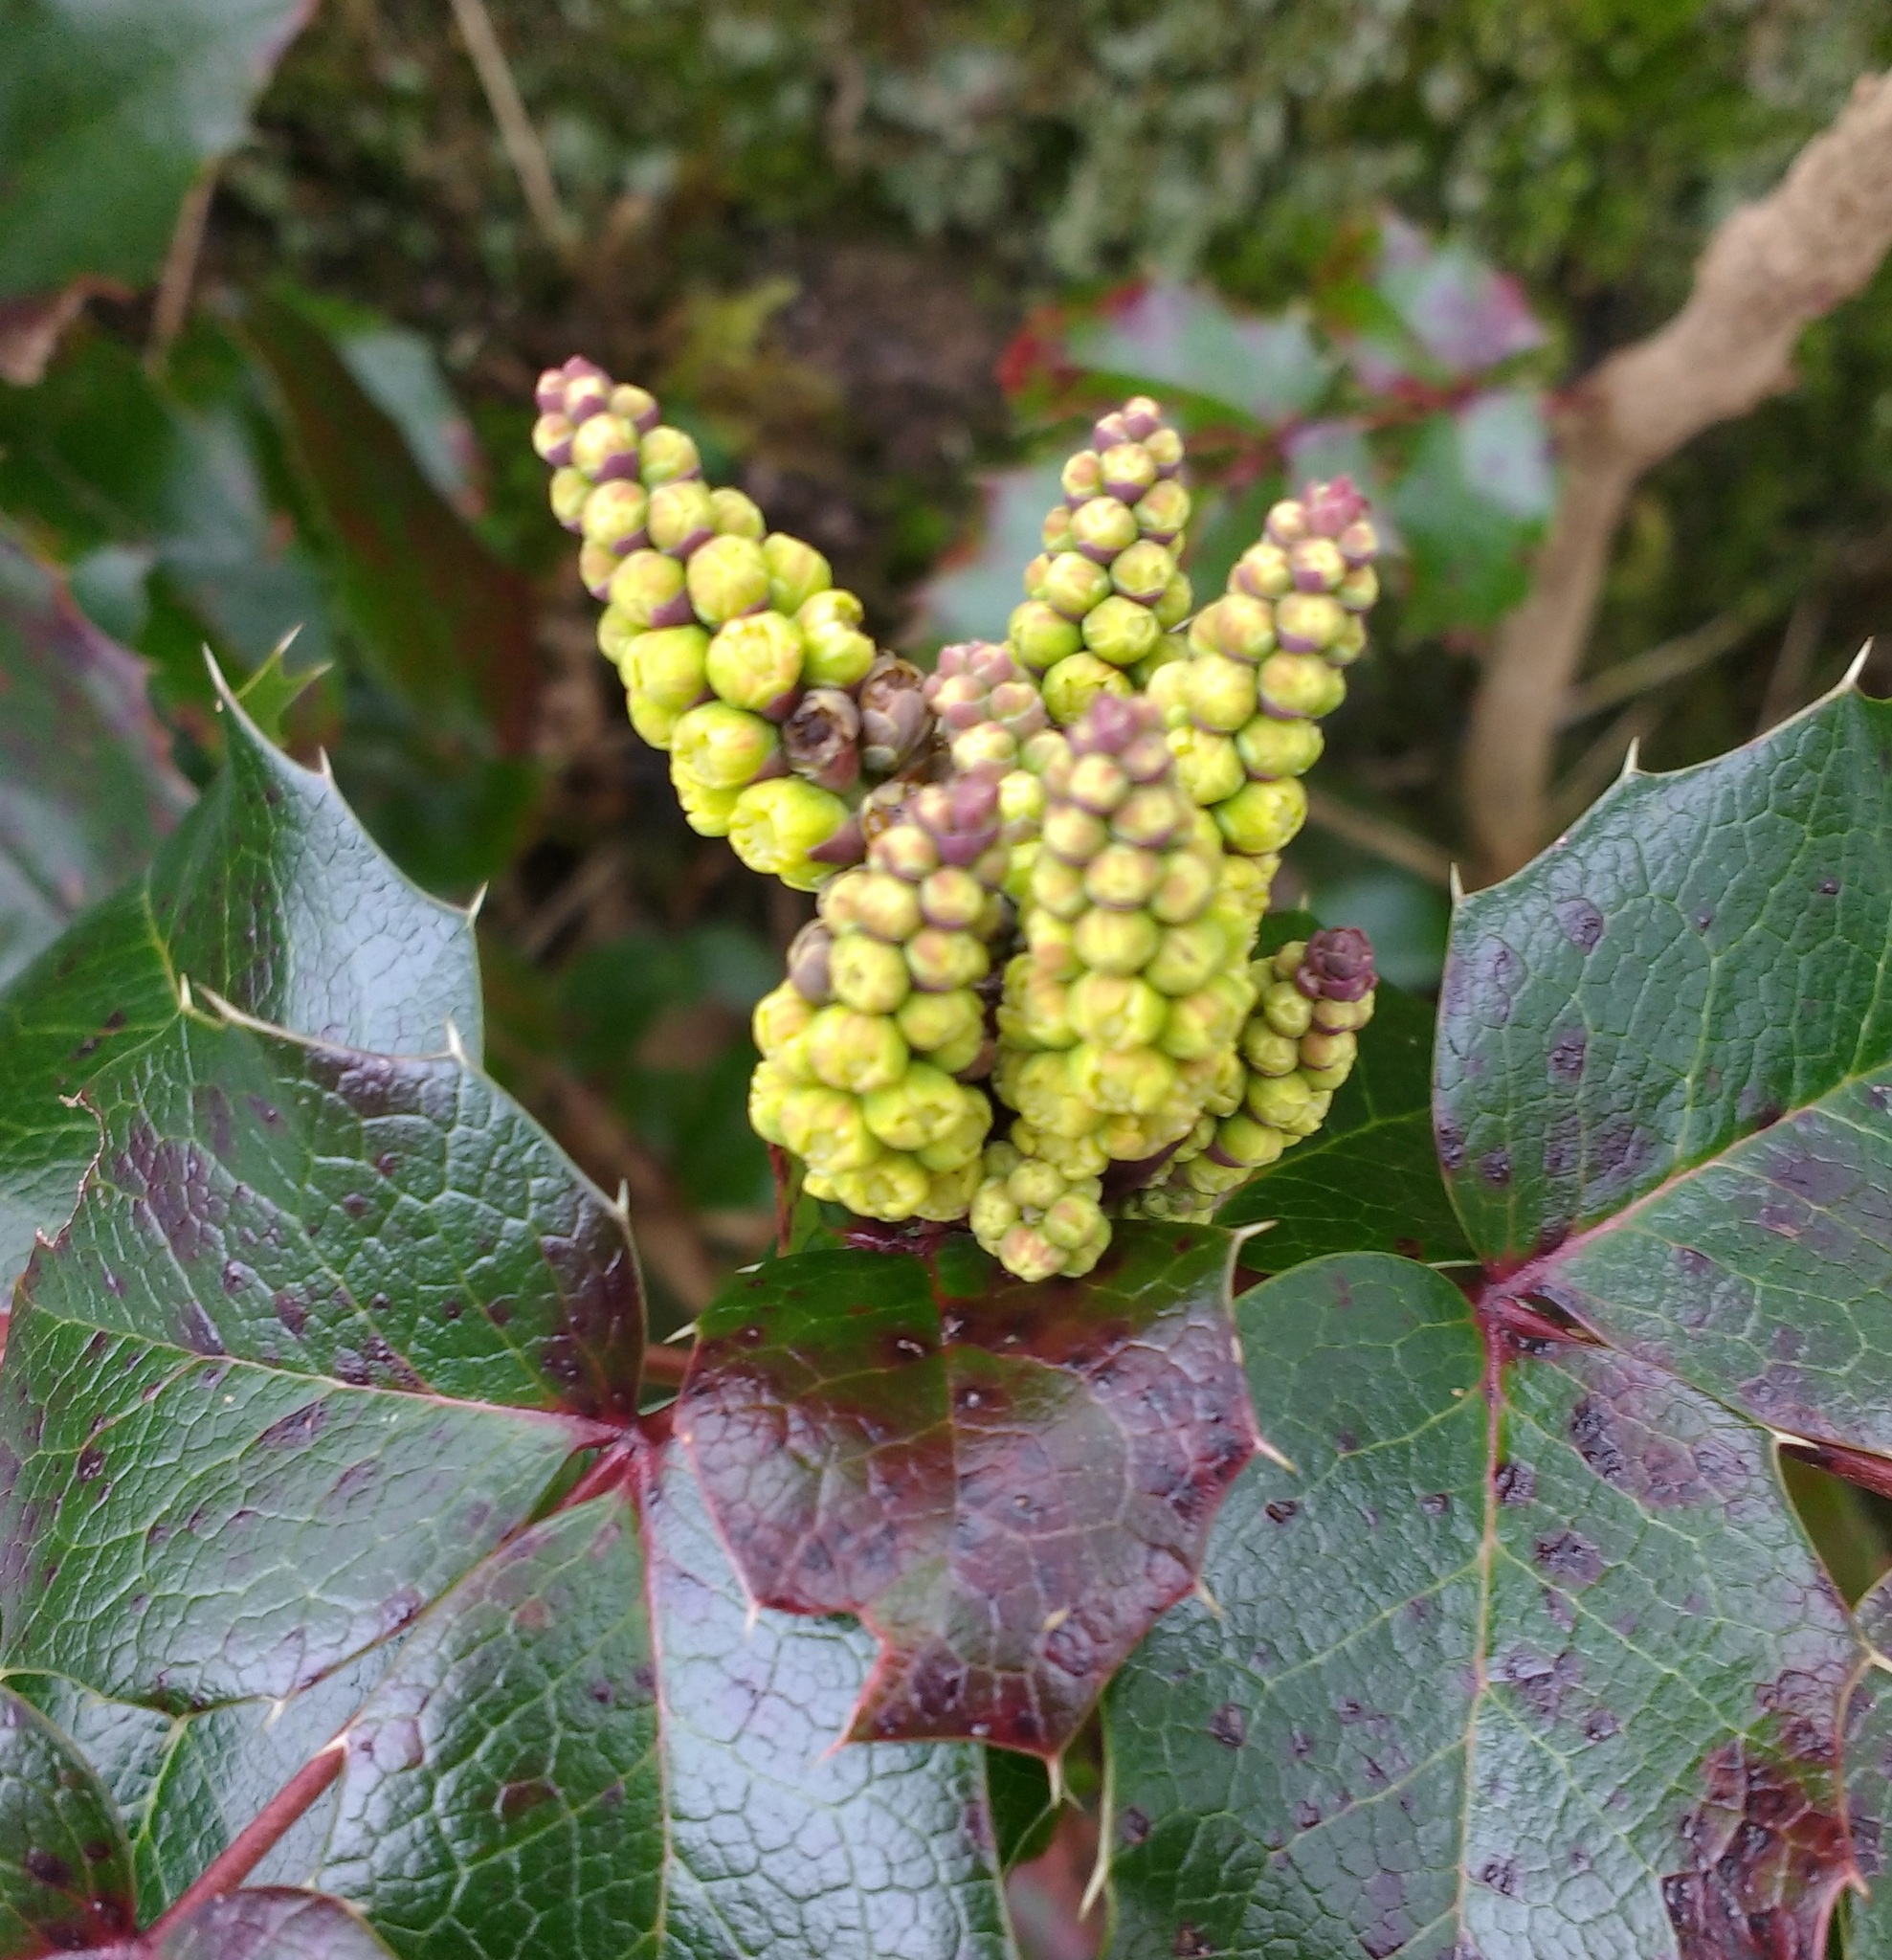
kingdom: Plantae
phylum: Tracheophyta
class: Magnoliopsida
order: Ranunculales
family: Berberidaceae
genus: Mahonia
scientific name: Mahonia aquifolium
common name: Oregon-grape
